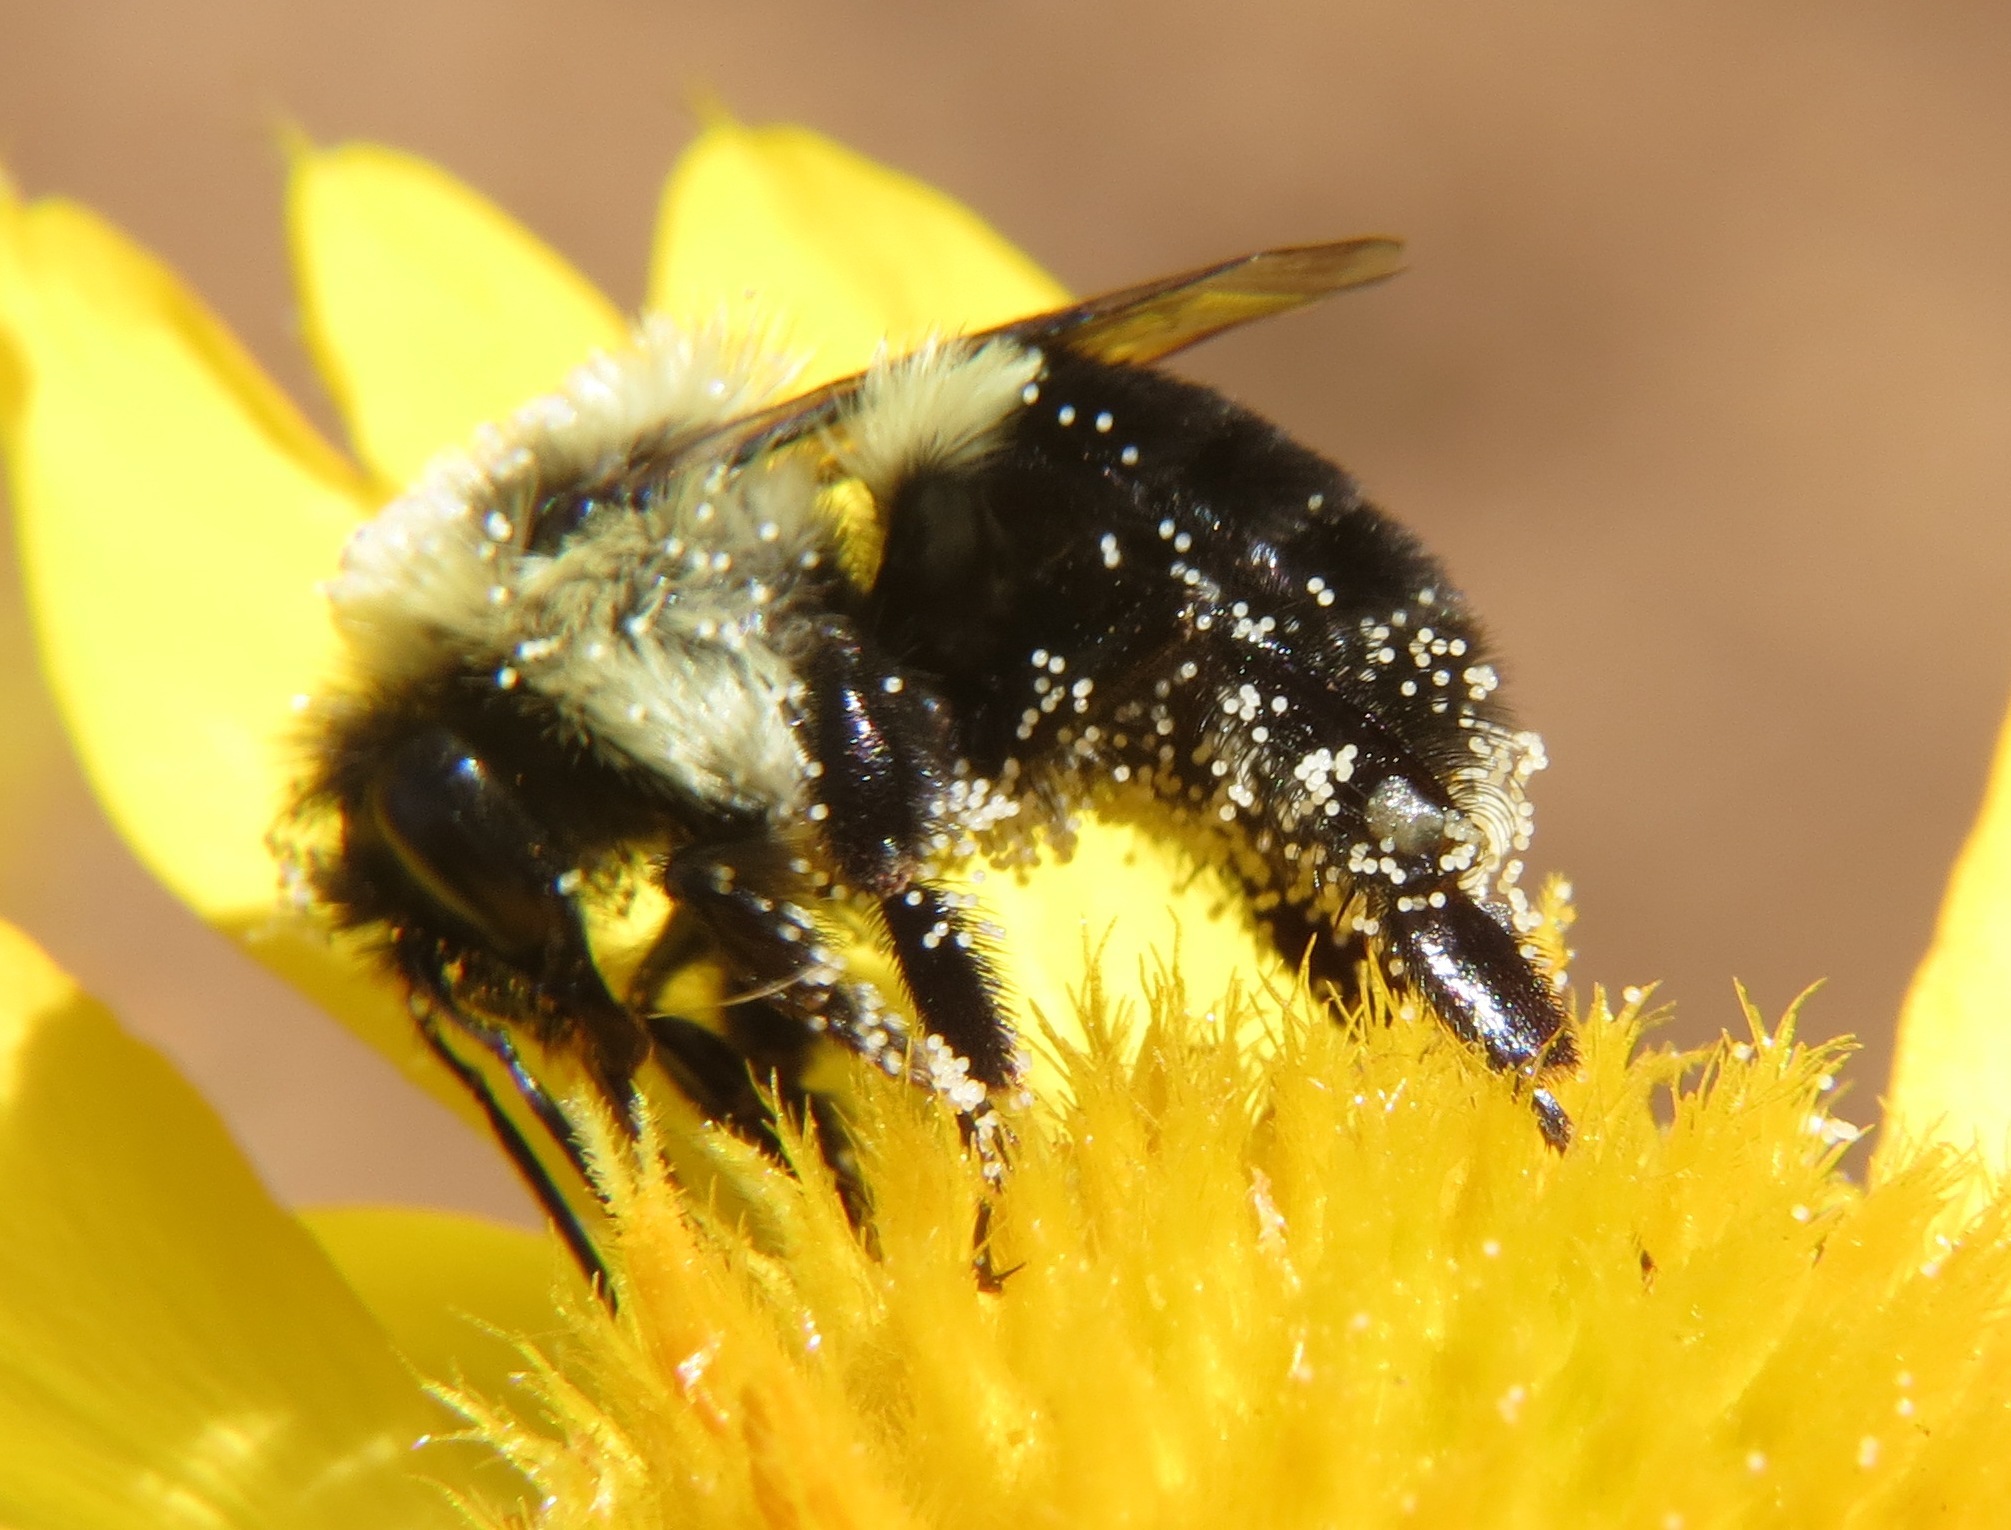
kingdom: Animalia
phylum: Arthropoda
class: Insecta
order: Hymenoptera
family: Apidae
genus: Bombus
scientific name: Bombus impatiens
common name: Common eastern bumble bee
